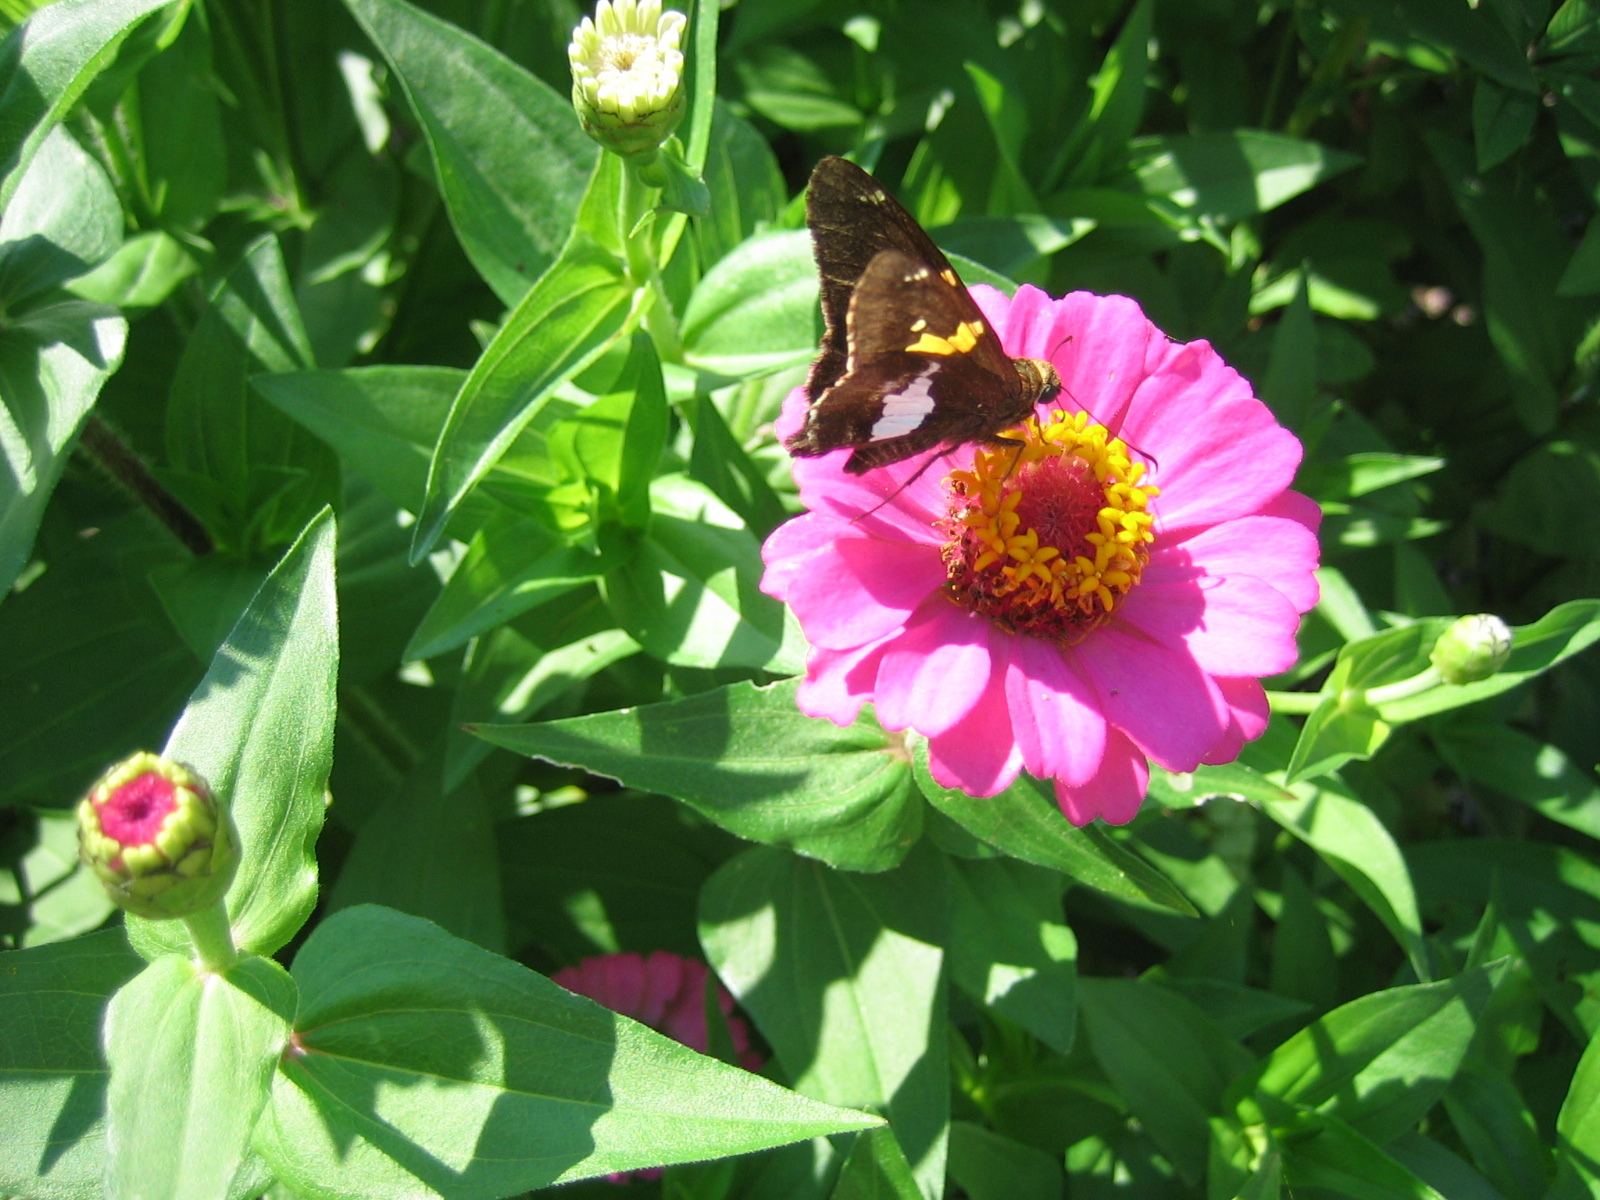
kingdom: Animalia
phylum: Arthropoda
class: Insecta
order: Lepidoptera
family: Hesperiidae
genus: Epargyreus
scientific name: Epargyreus clarus
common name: Silver-spotted skipper
